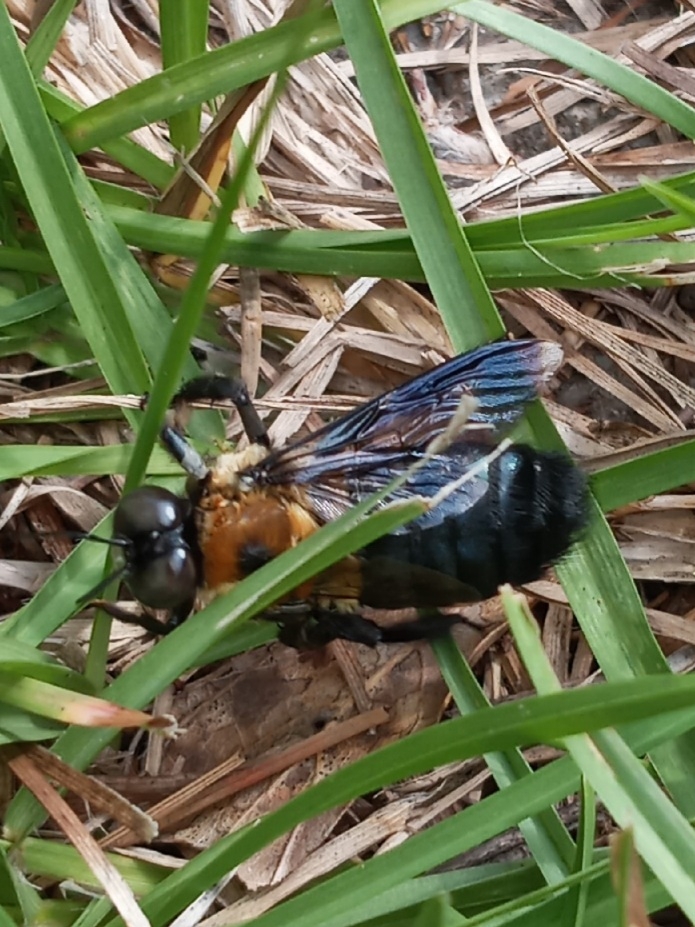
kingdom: Animalia
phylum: Arthropoda
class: Insecta
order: Hymenoptera
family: Apidae
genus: Xylocopa
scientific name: Xylocopa virginica
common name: Carpenter bee
